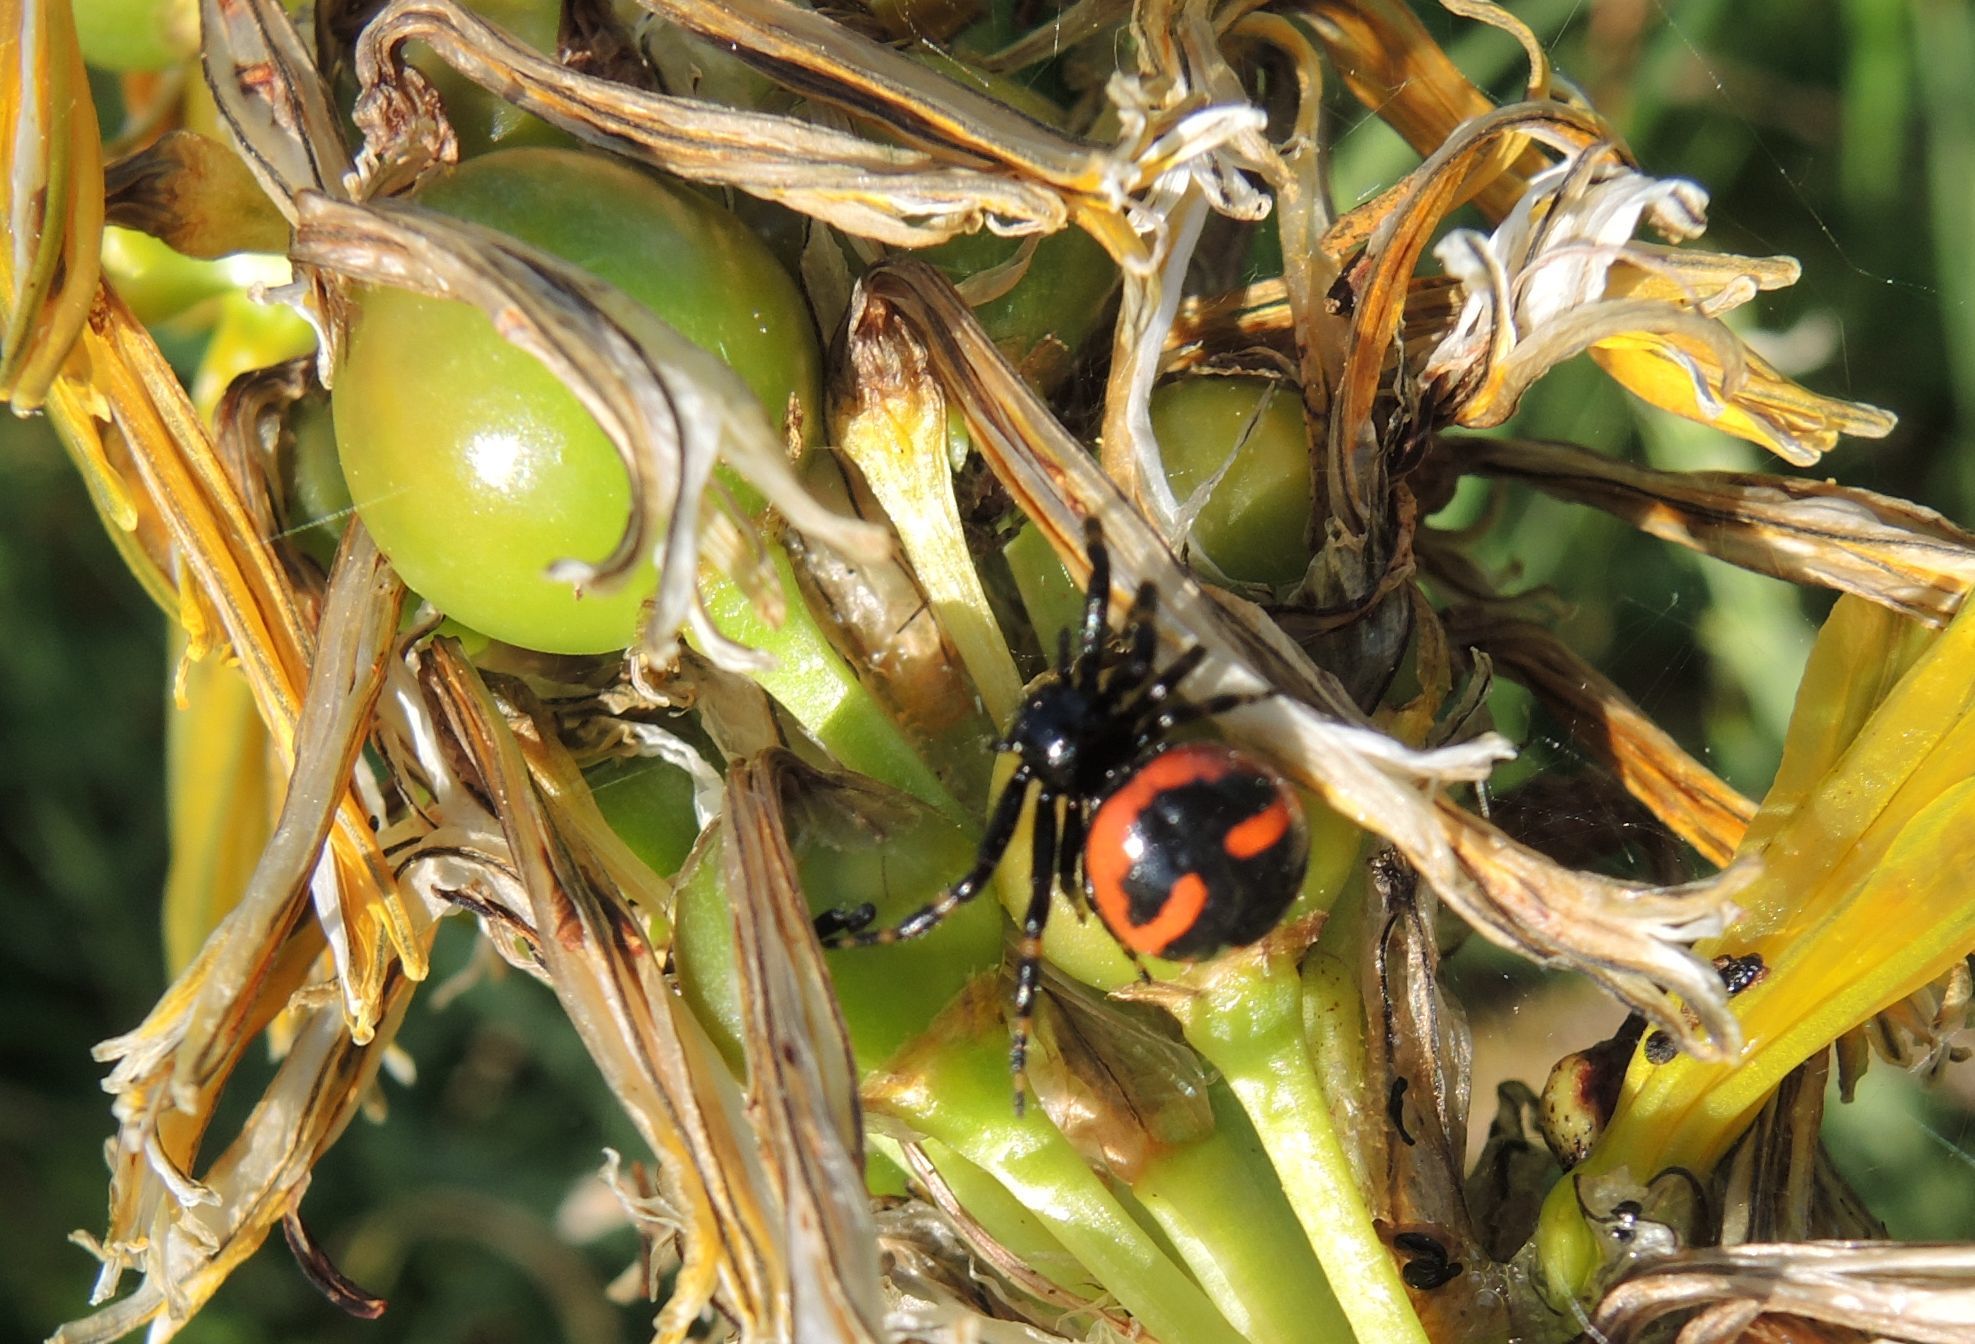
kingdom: Animalia
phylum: Arthropoda
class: Arachnida
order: Araneae
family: Thomisidae
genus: Synema
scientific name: Synema globosum
